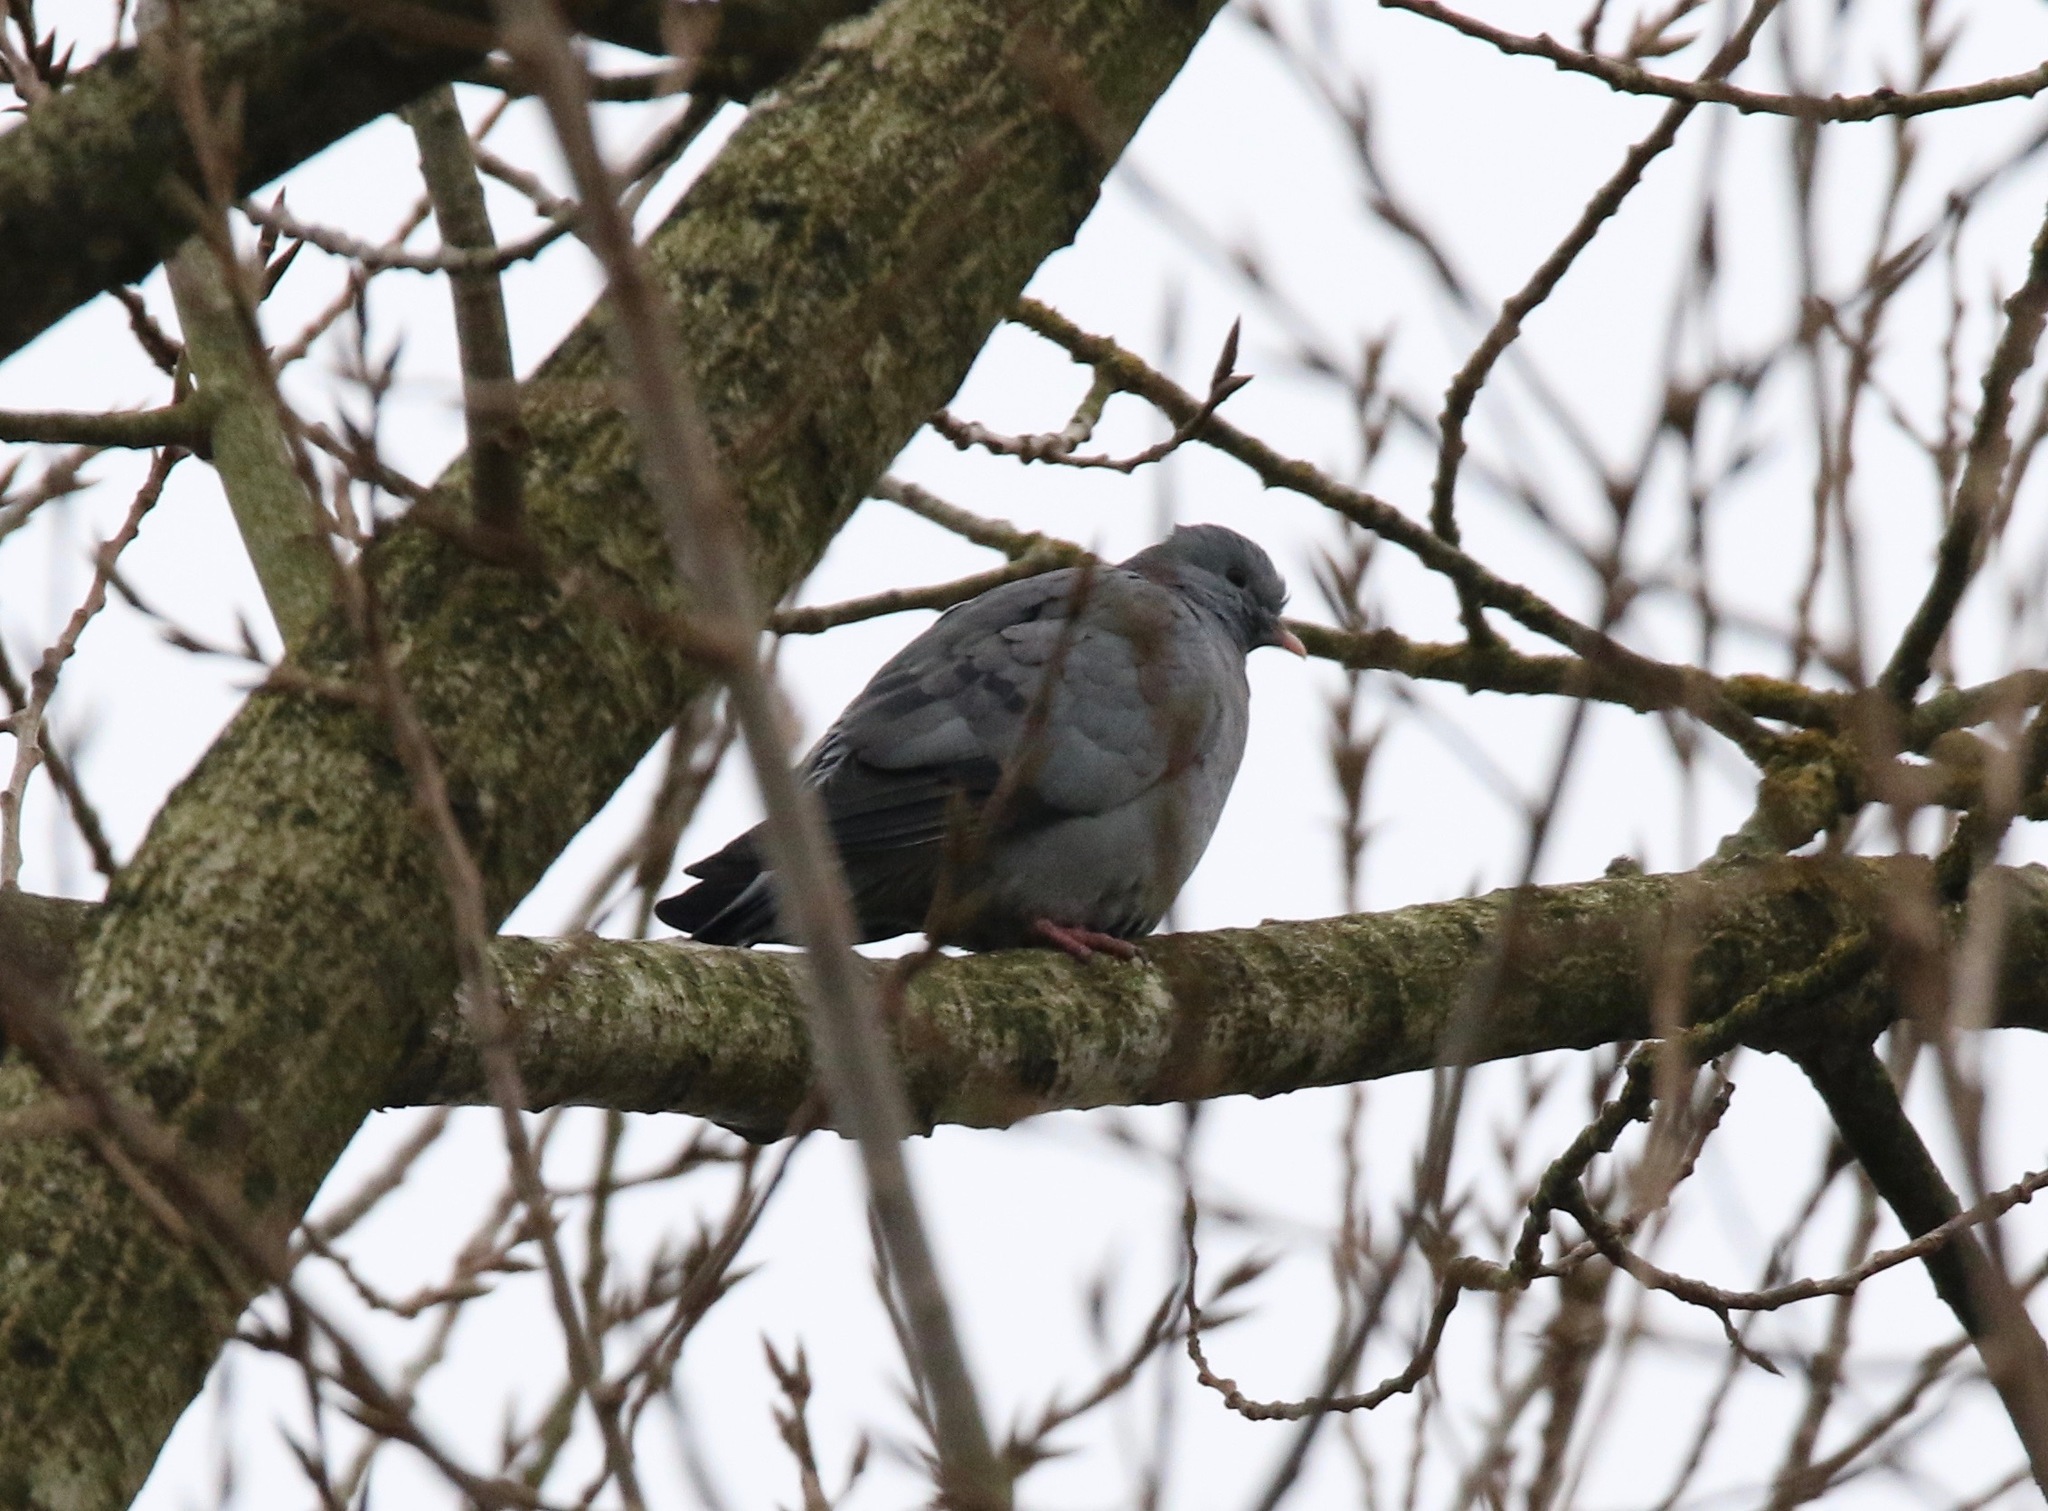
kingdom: Animalia
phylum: Chordata
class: Aves
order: Columbiformes
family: Columbidae
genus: Columba
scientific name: Columba oenas
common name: Stock dove
